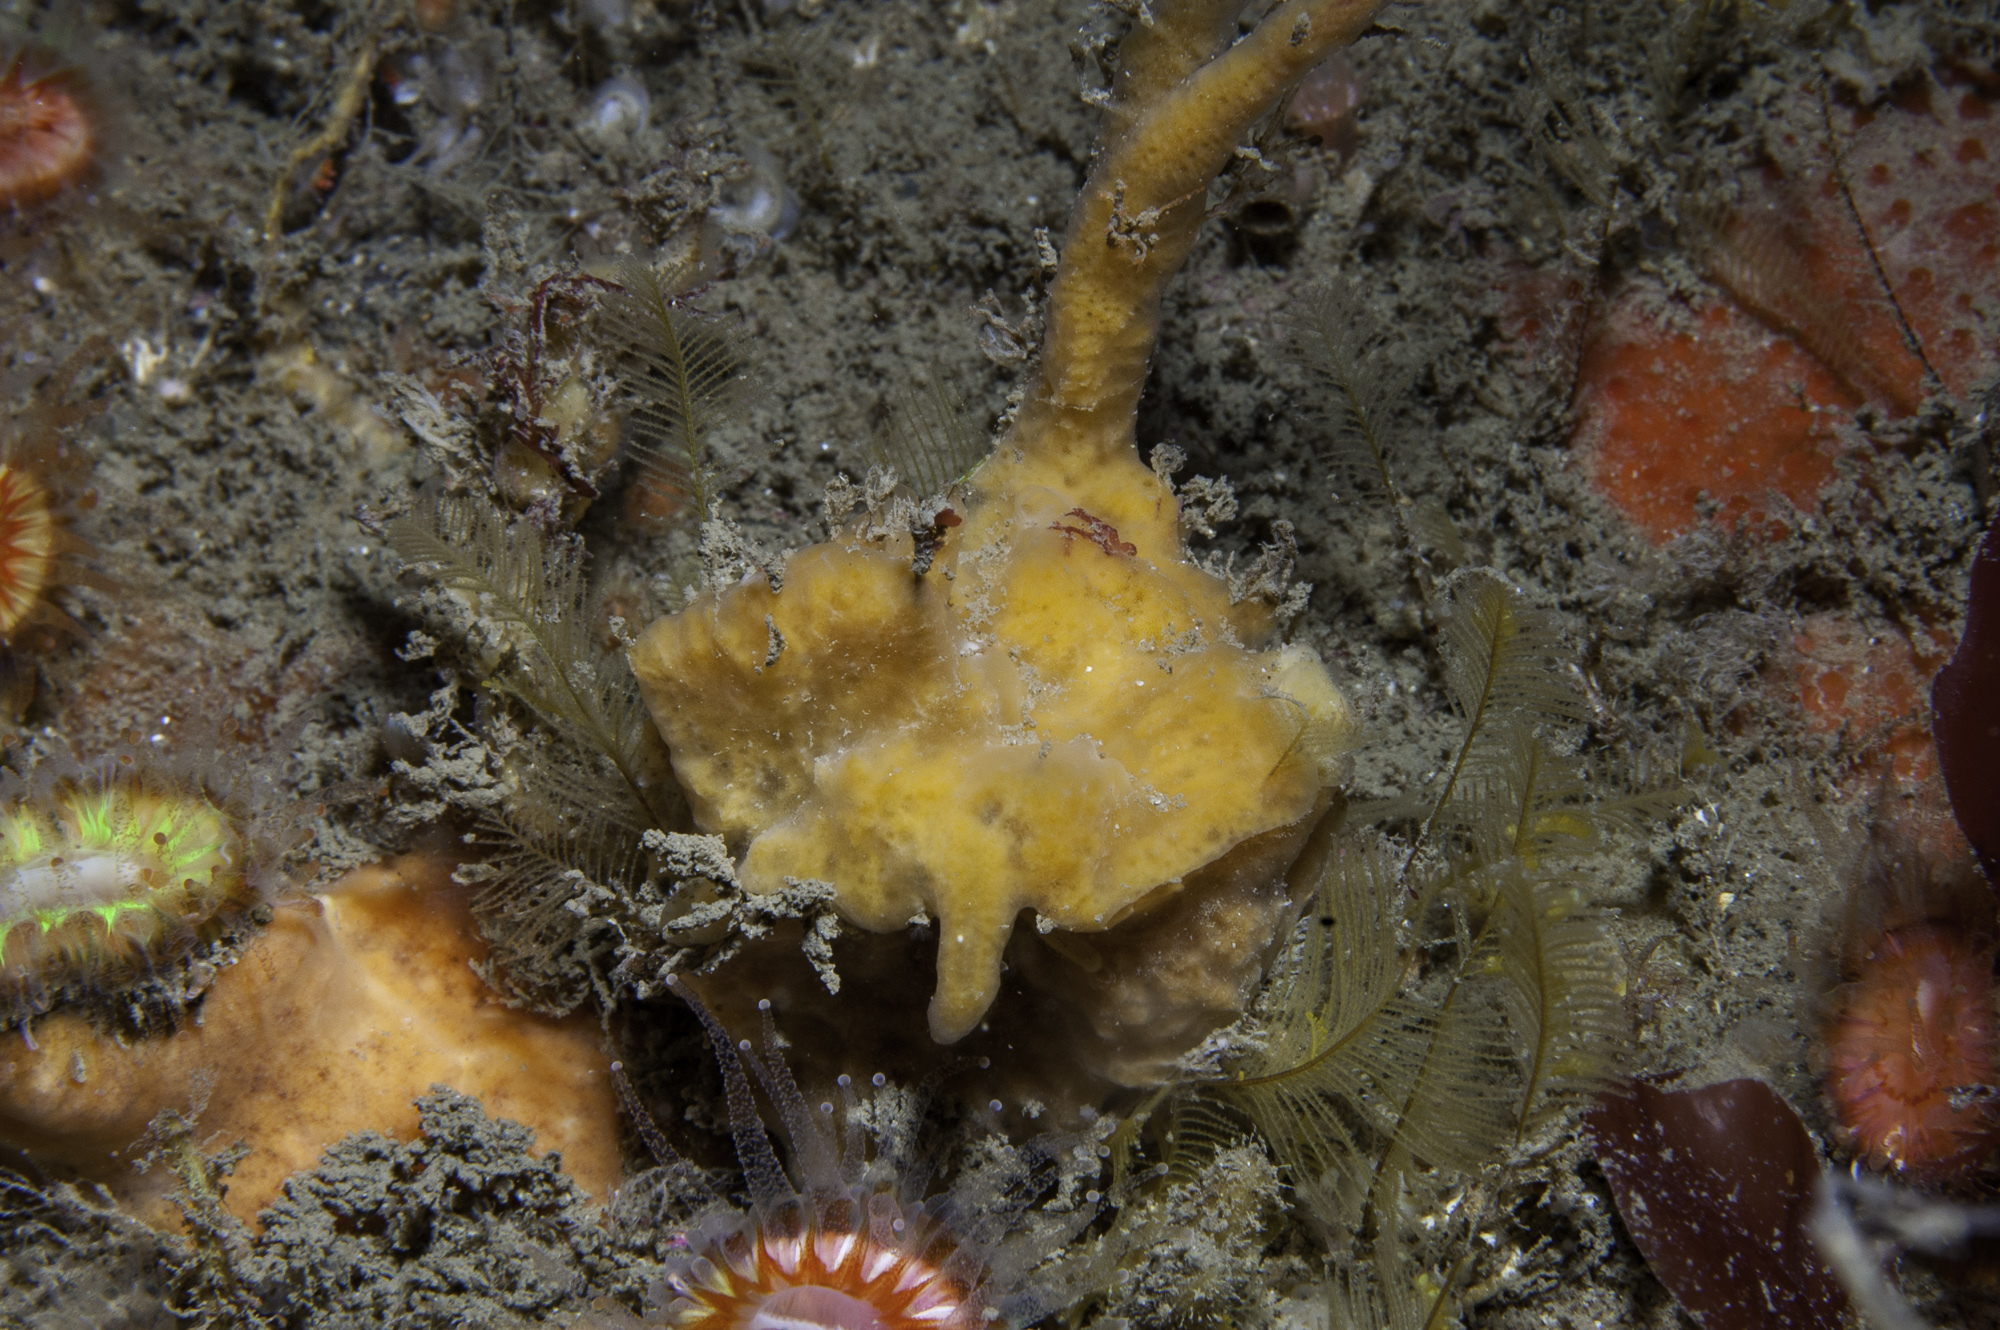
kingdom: Animalia
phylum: Porifera
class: Demospongiae
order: Poecilosclerida
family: Acarnidae
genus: Iophon
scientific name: Iophon nigricans
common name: Yellow-fingered horny sponge
